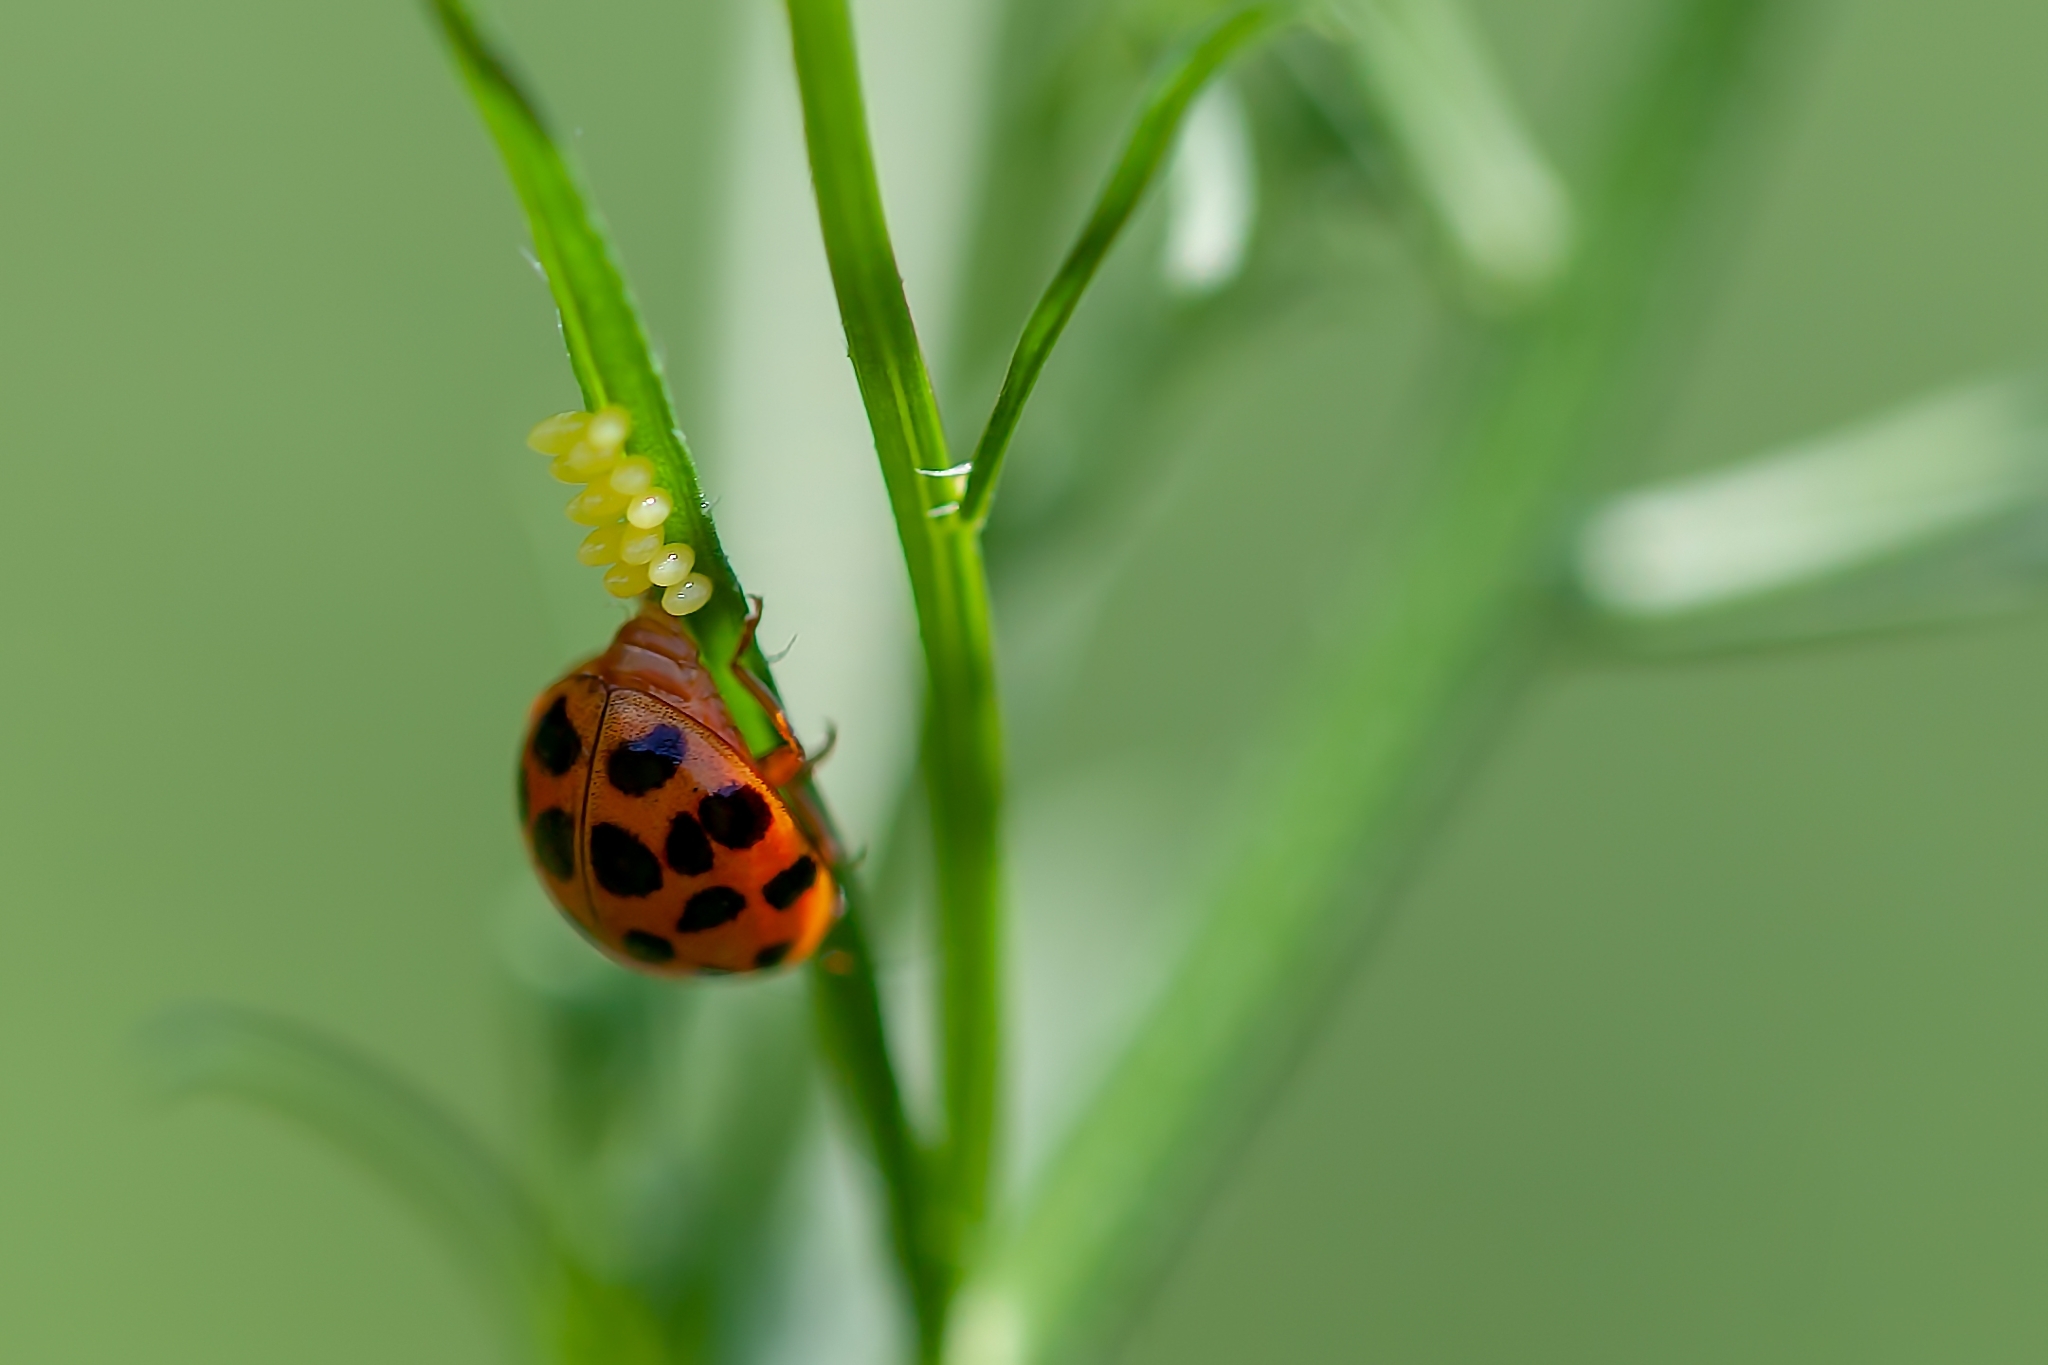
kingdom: Animalia
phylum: Arthropoda
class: Insecta
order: Coleoptera
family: Coccinellidae
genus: Harmonia
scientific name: Harmonia axyridis
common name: Harlequin ladybird
